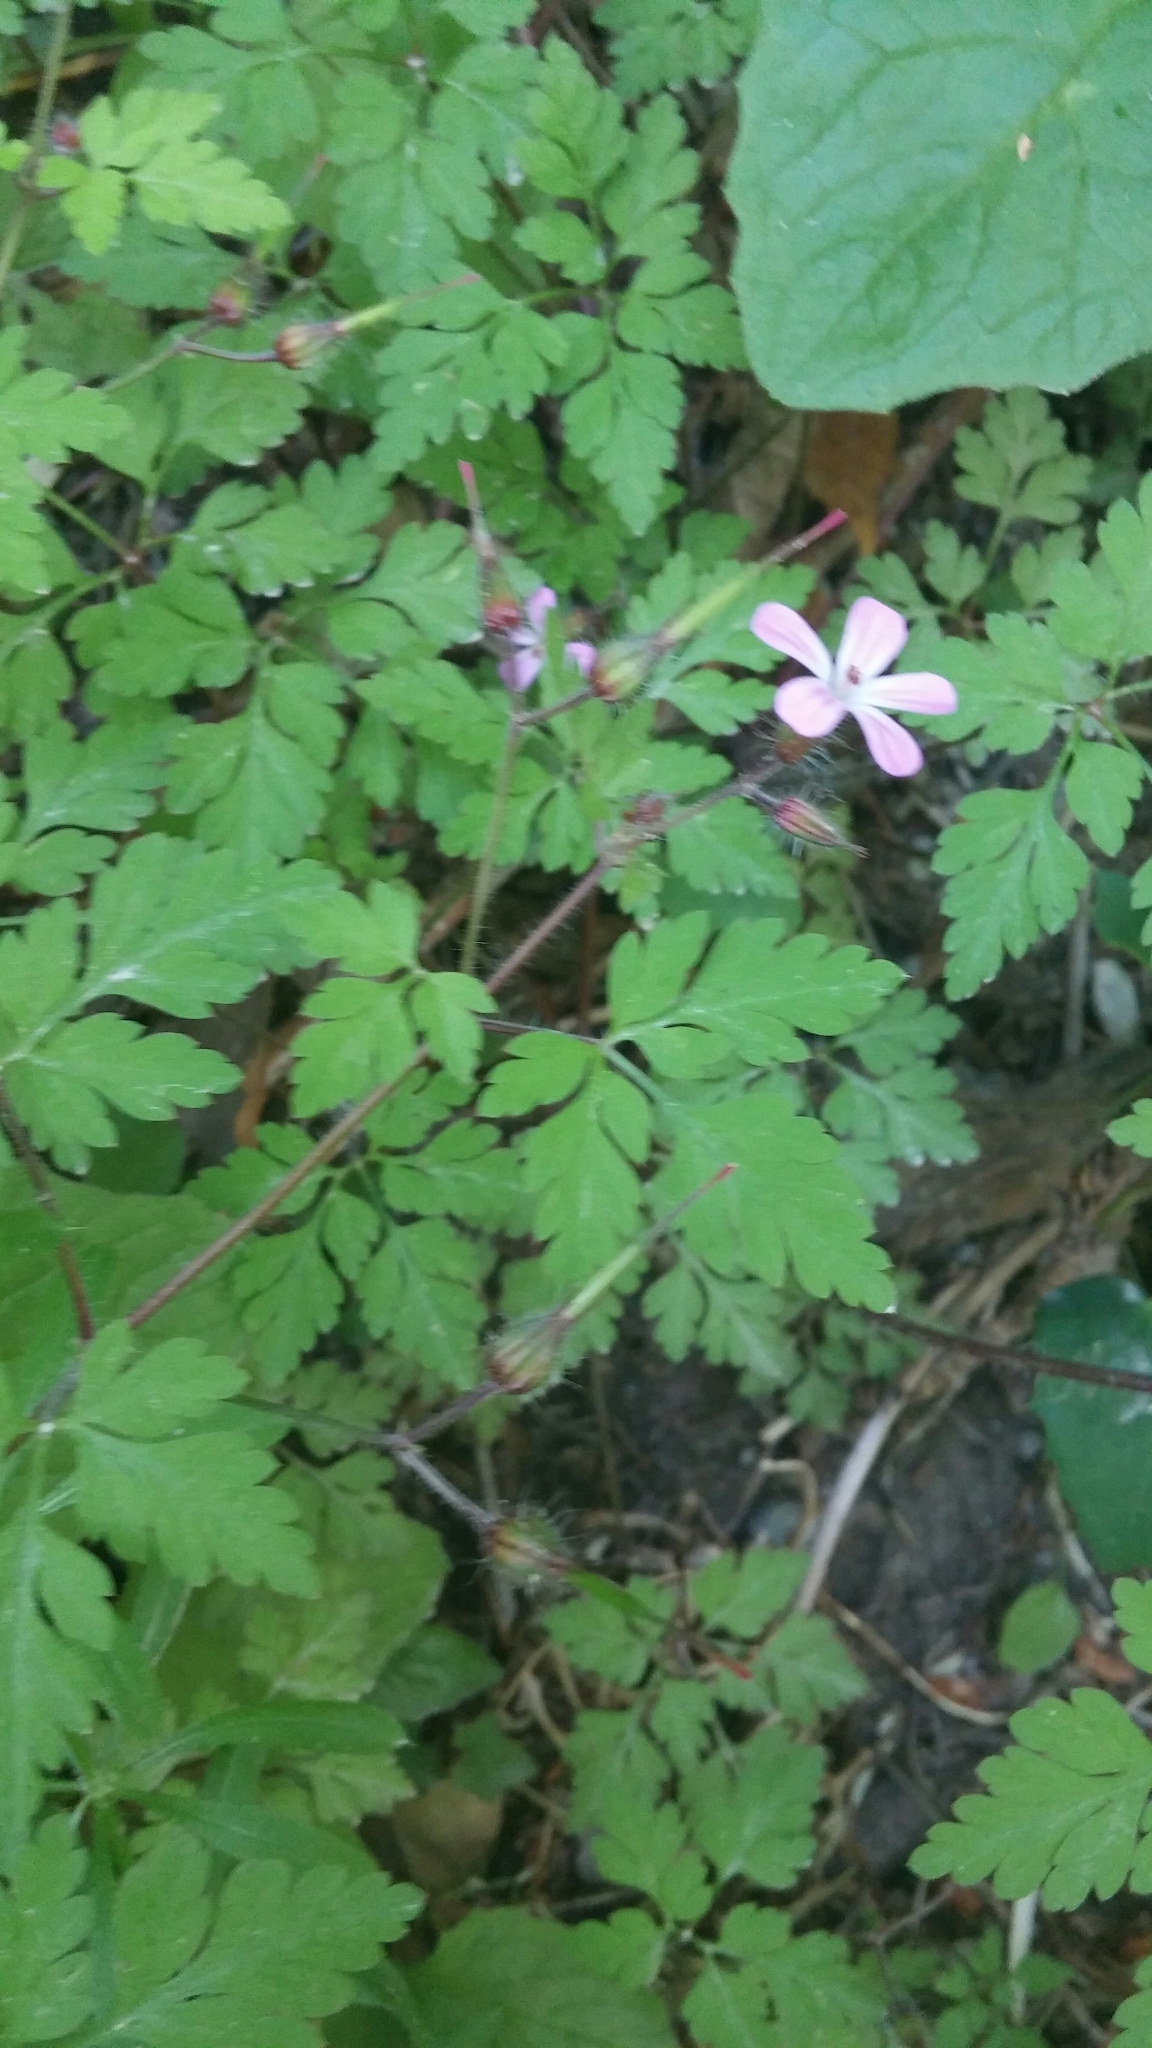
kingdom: Plantae
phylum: Tracheophyta
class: Magnoliopsida
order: Geraniales
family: Geraniaceae
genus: Geranium
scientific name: Geranium robertianum
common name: Herb-robert
